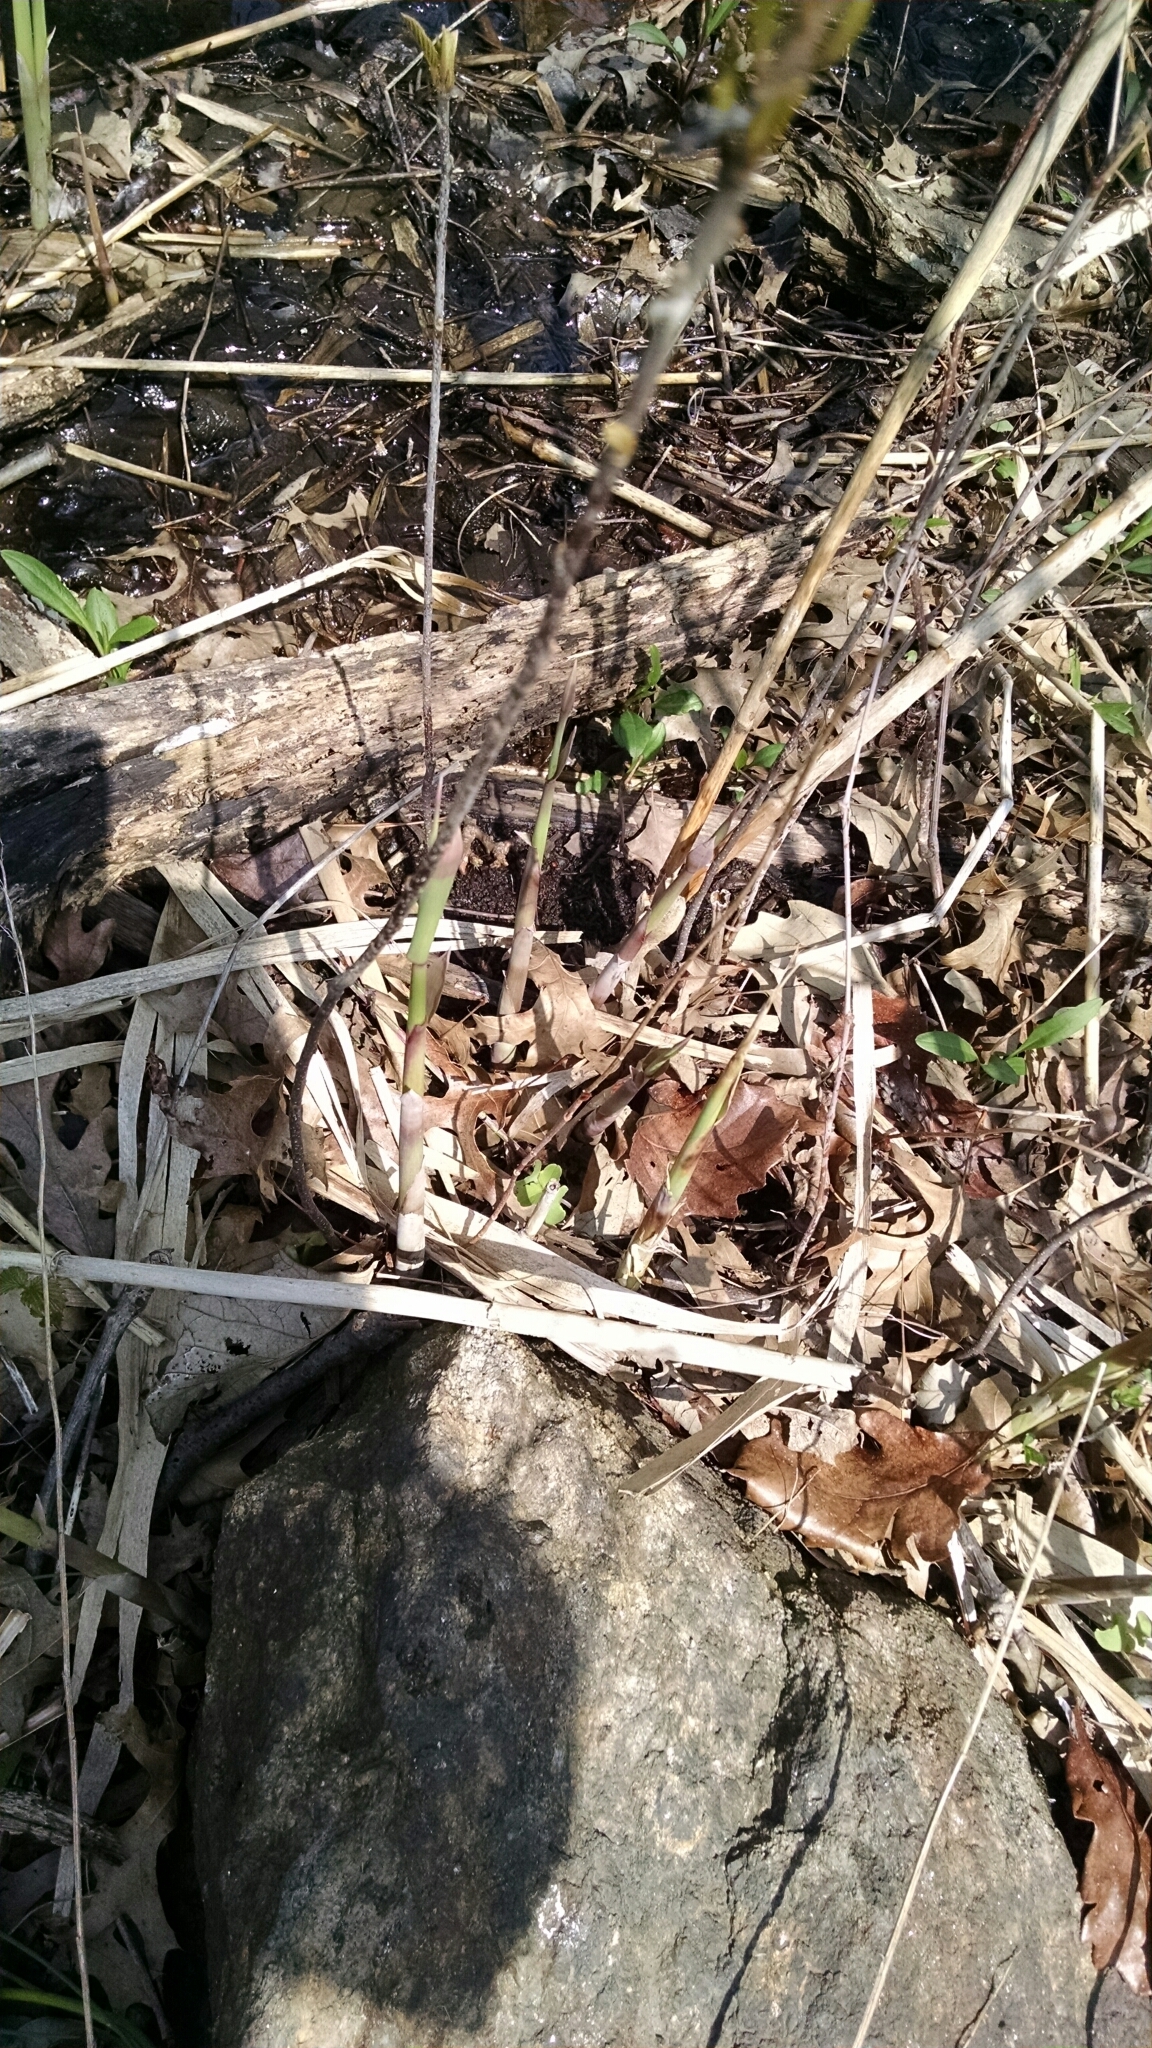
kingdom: Plantae
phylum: Tracheophyta
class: Liliopsida
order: Poales
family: Poaceae
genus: Phragmites
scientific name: Phragmites australis
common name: Common reed
